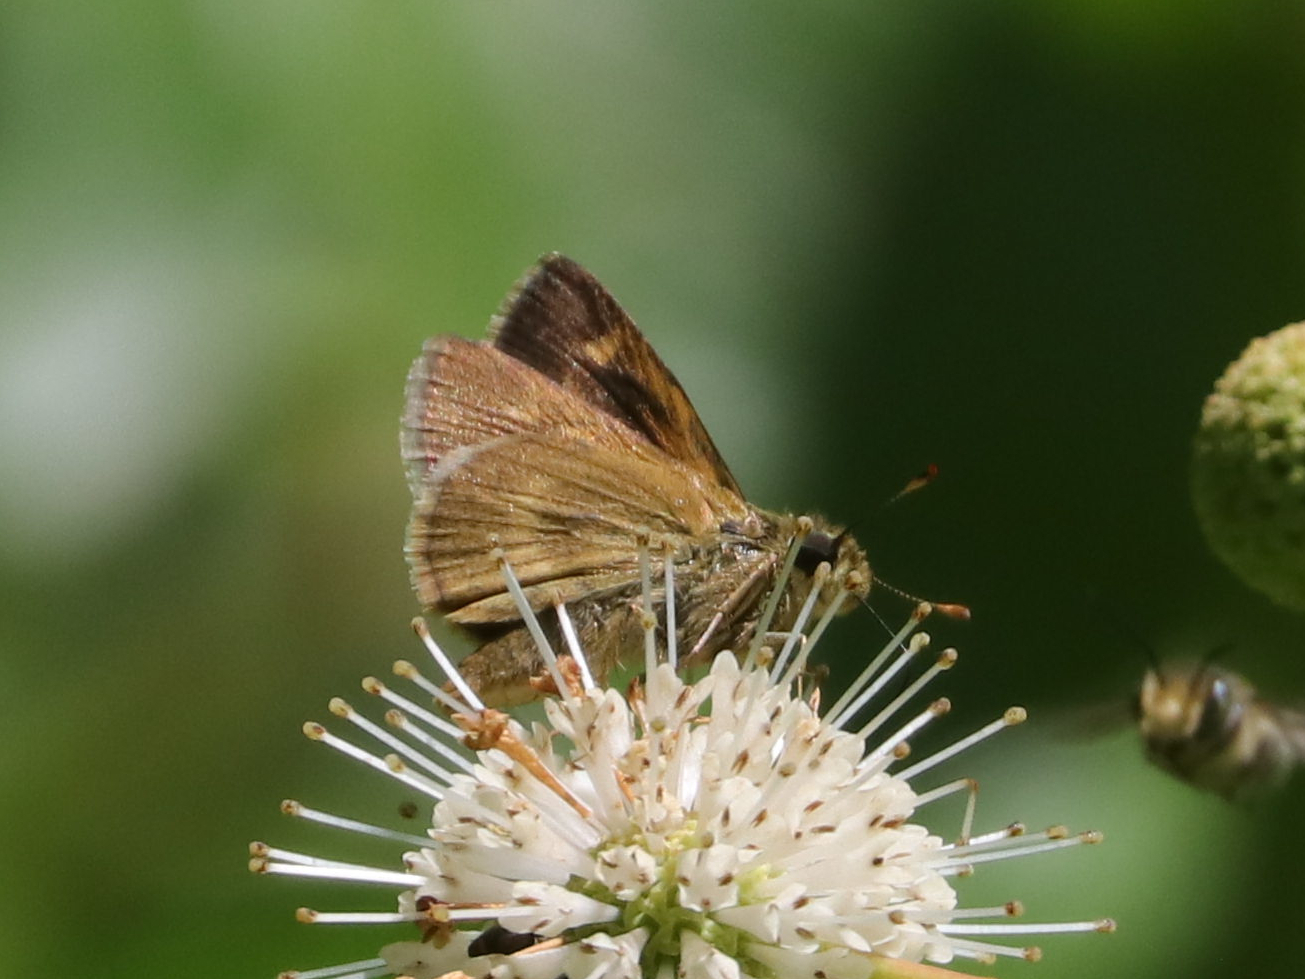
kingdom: Animalia
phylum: Arthropoda
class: Insecta
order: Lepidoptera
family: Hesperiidae
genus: Polites
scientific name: Polites egeremet
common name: Northern broken-dash
